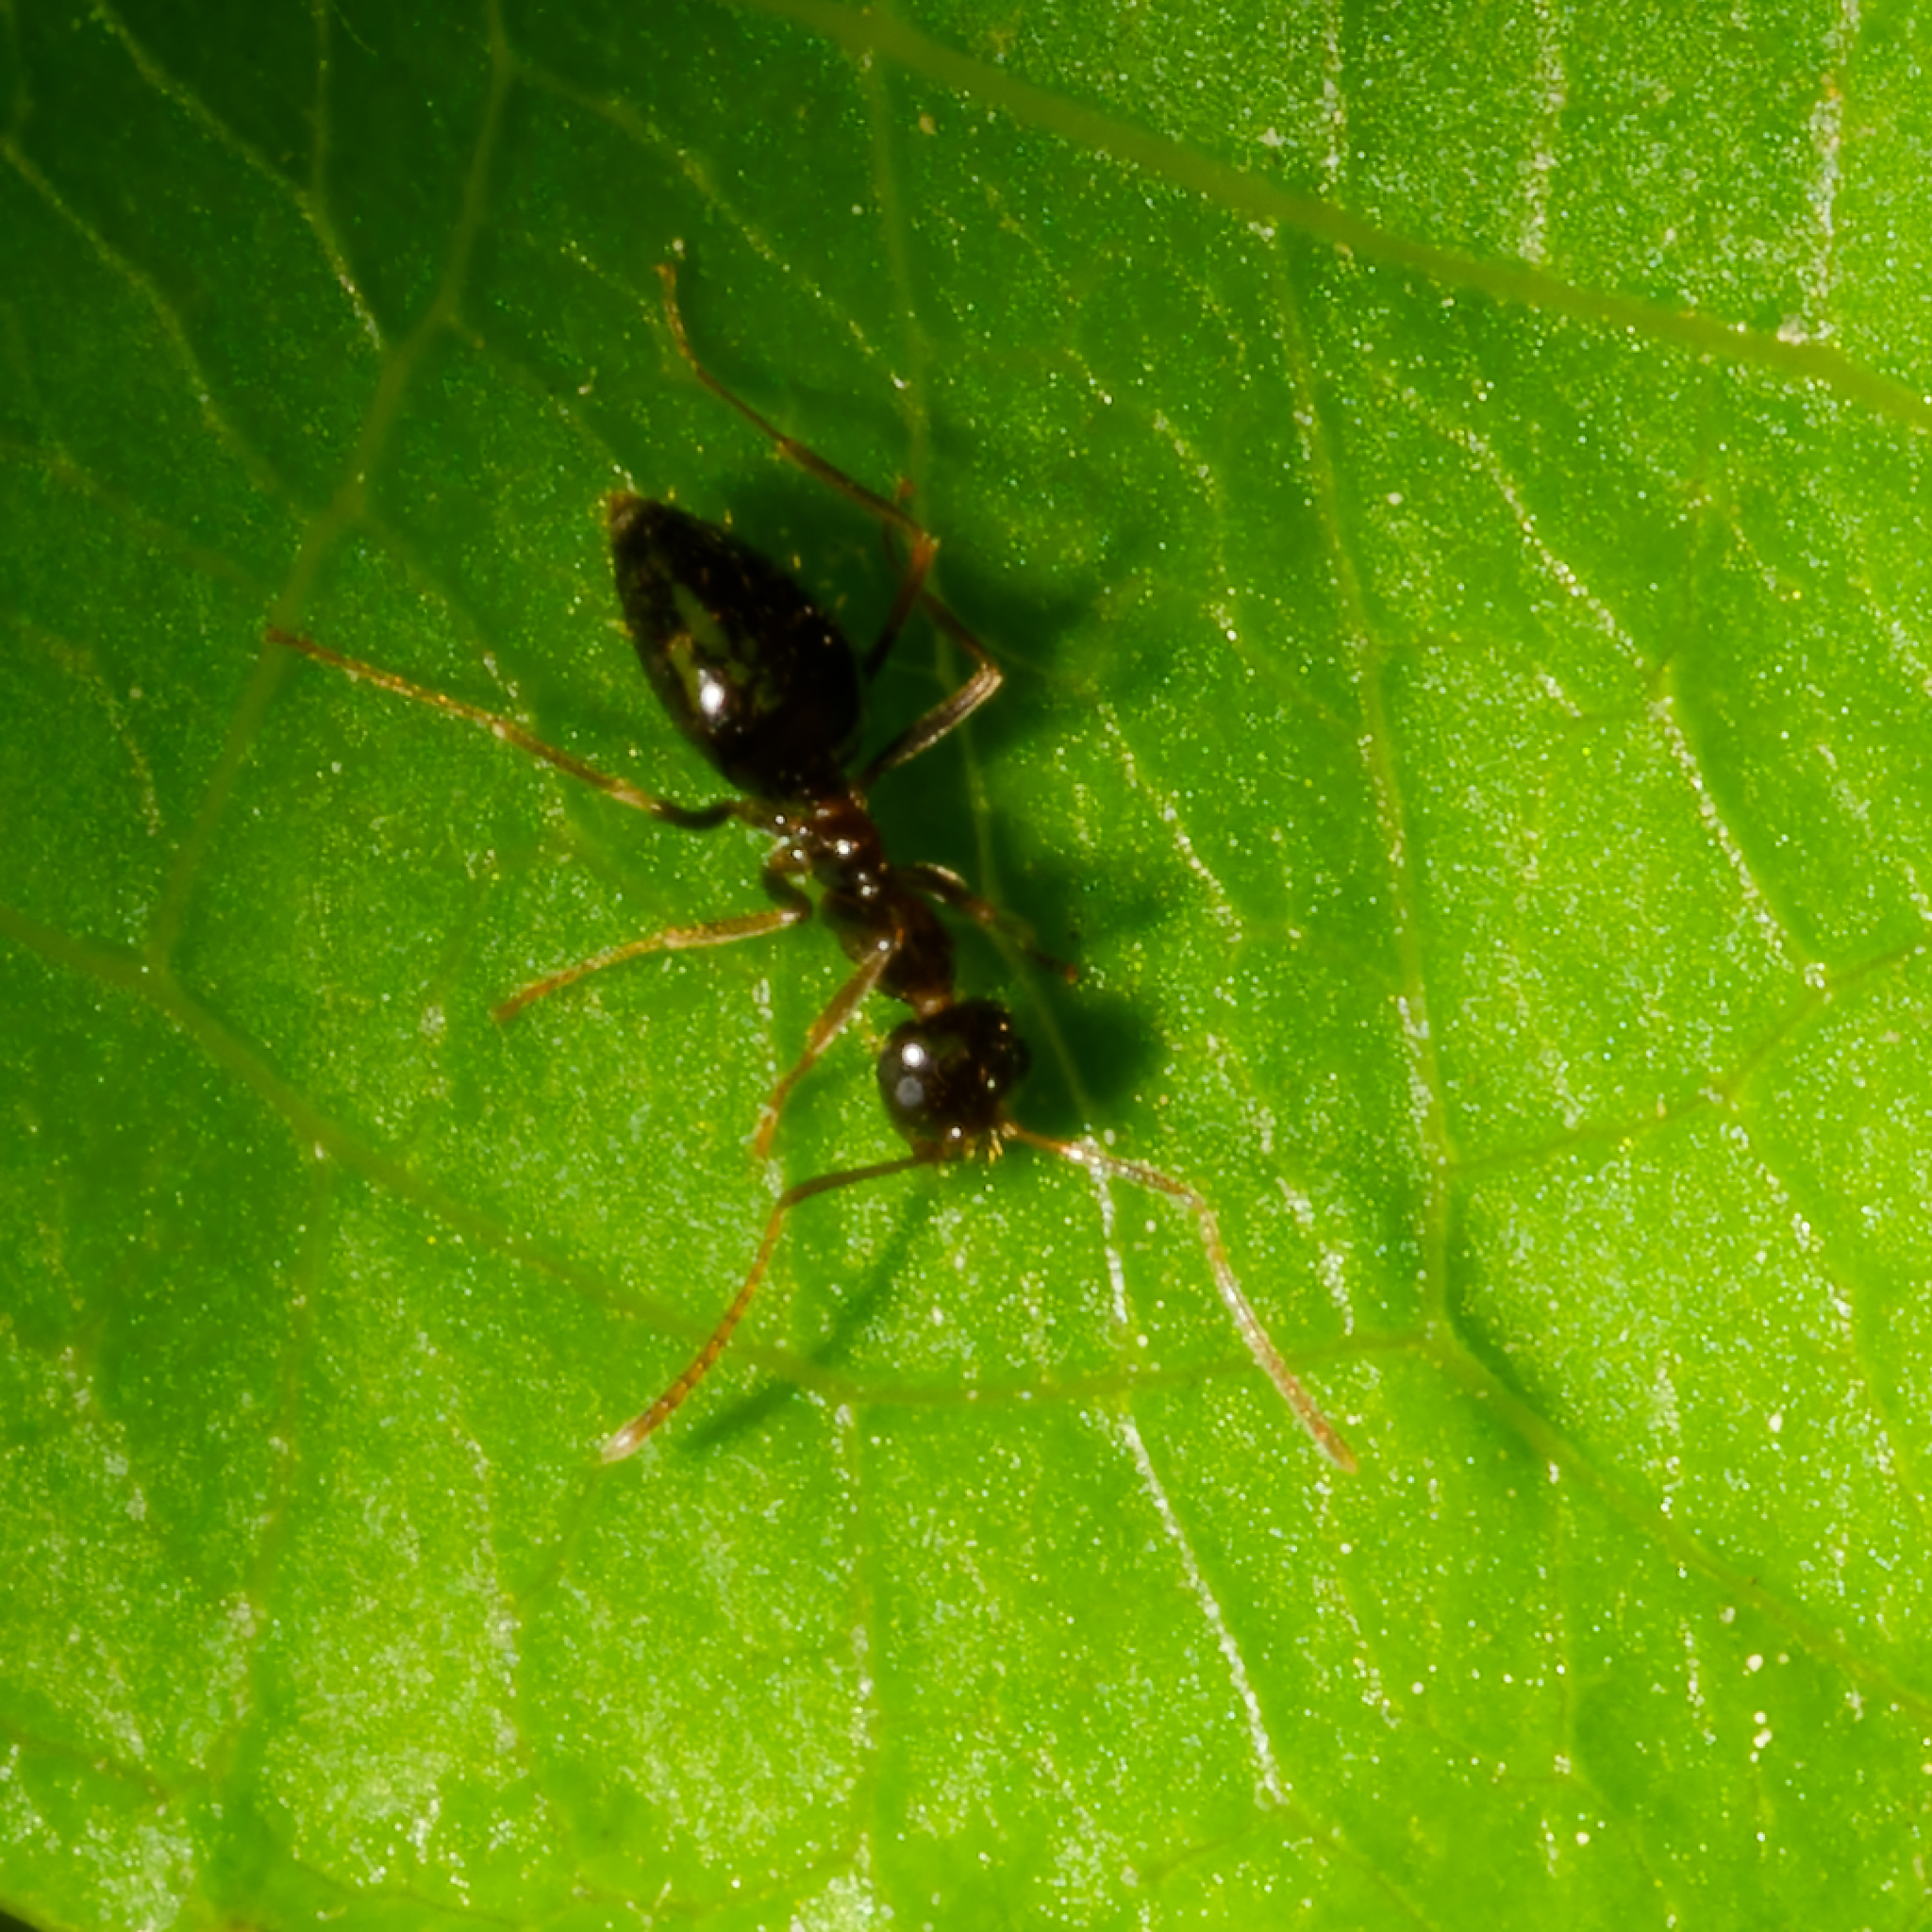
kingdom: Animalia
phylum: Arthropoda
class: Insecta
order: Hymenoptera
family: Formicidae
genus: Prenolepis
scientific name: Prenolepis imparis
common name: Small honey ant
